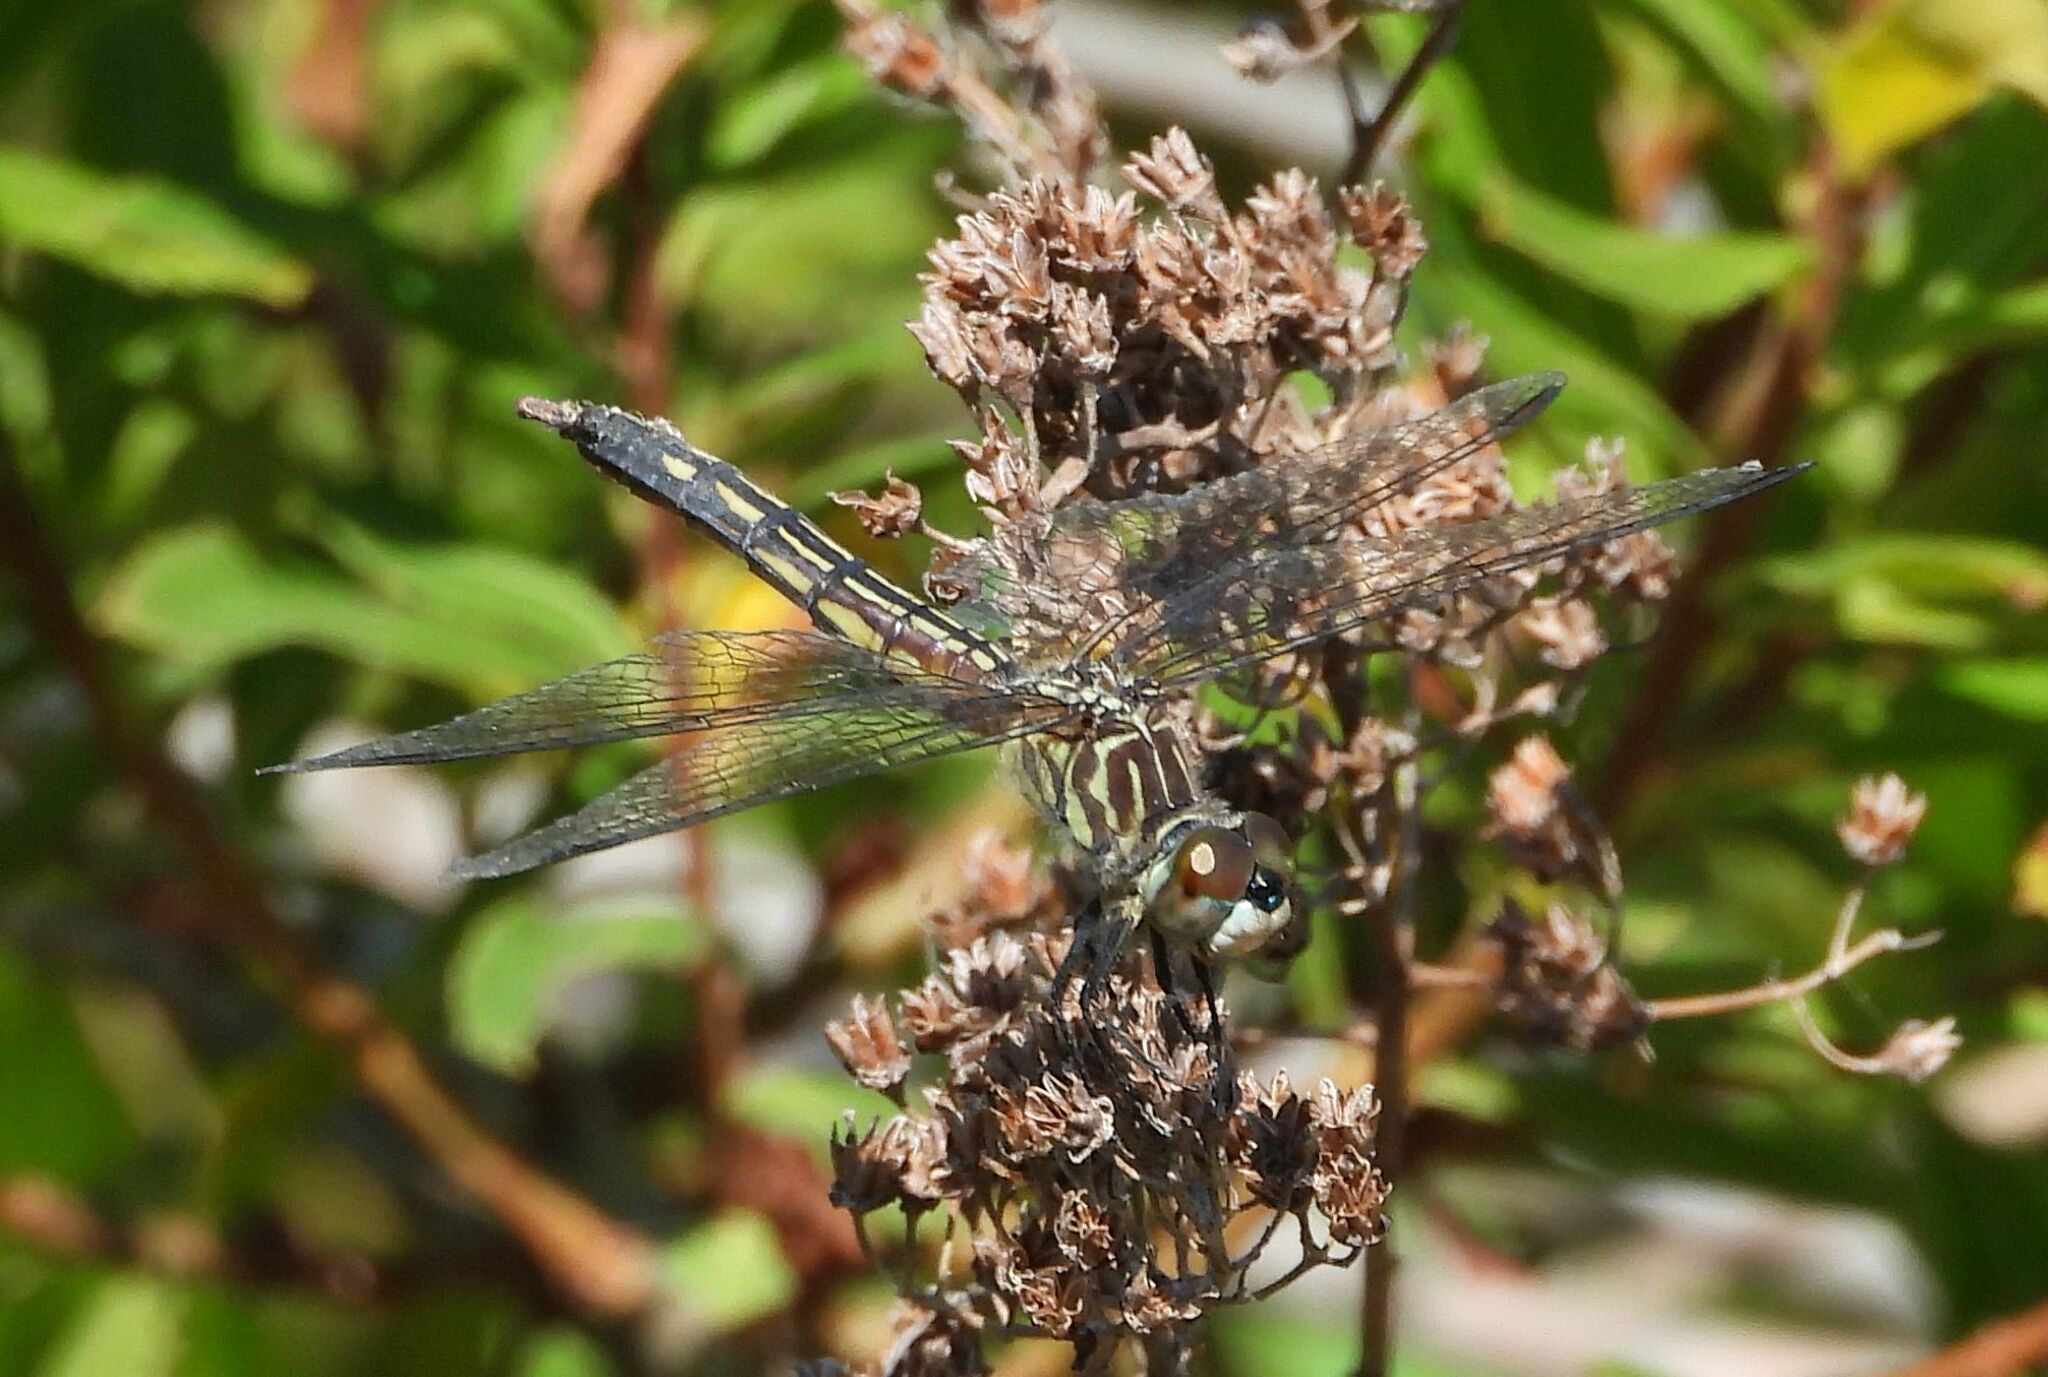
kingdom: Animalia
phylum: Arthropoda
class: Insecta
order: Odonata
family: Libellulidae
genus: Pachydiplax
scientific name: Pachydiplax longipennis
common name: Blue dasher
